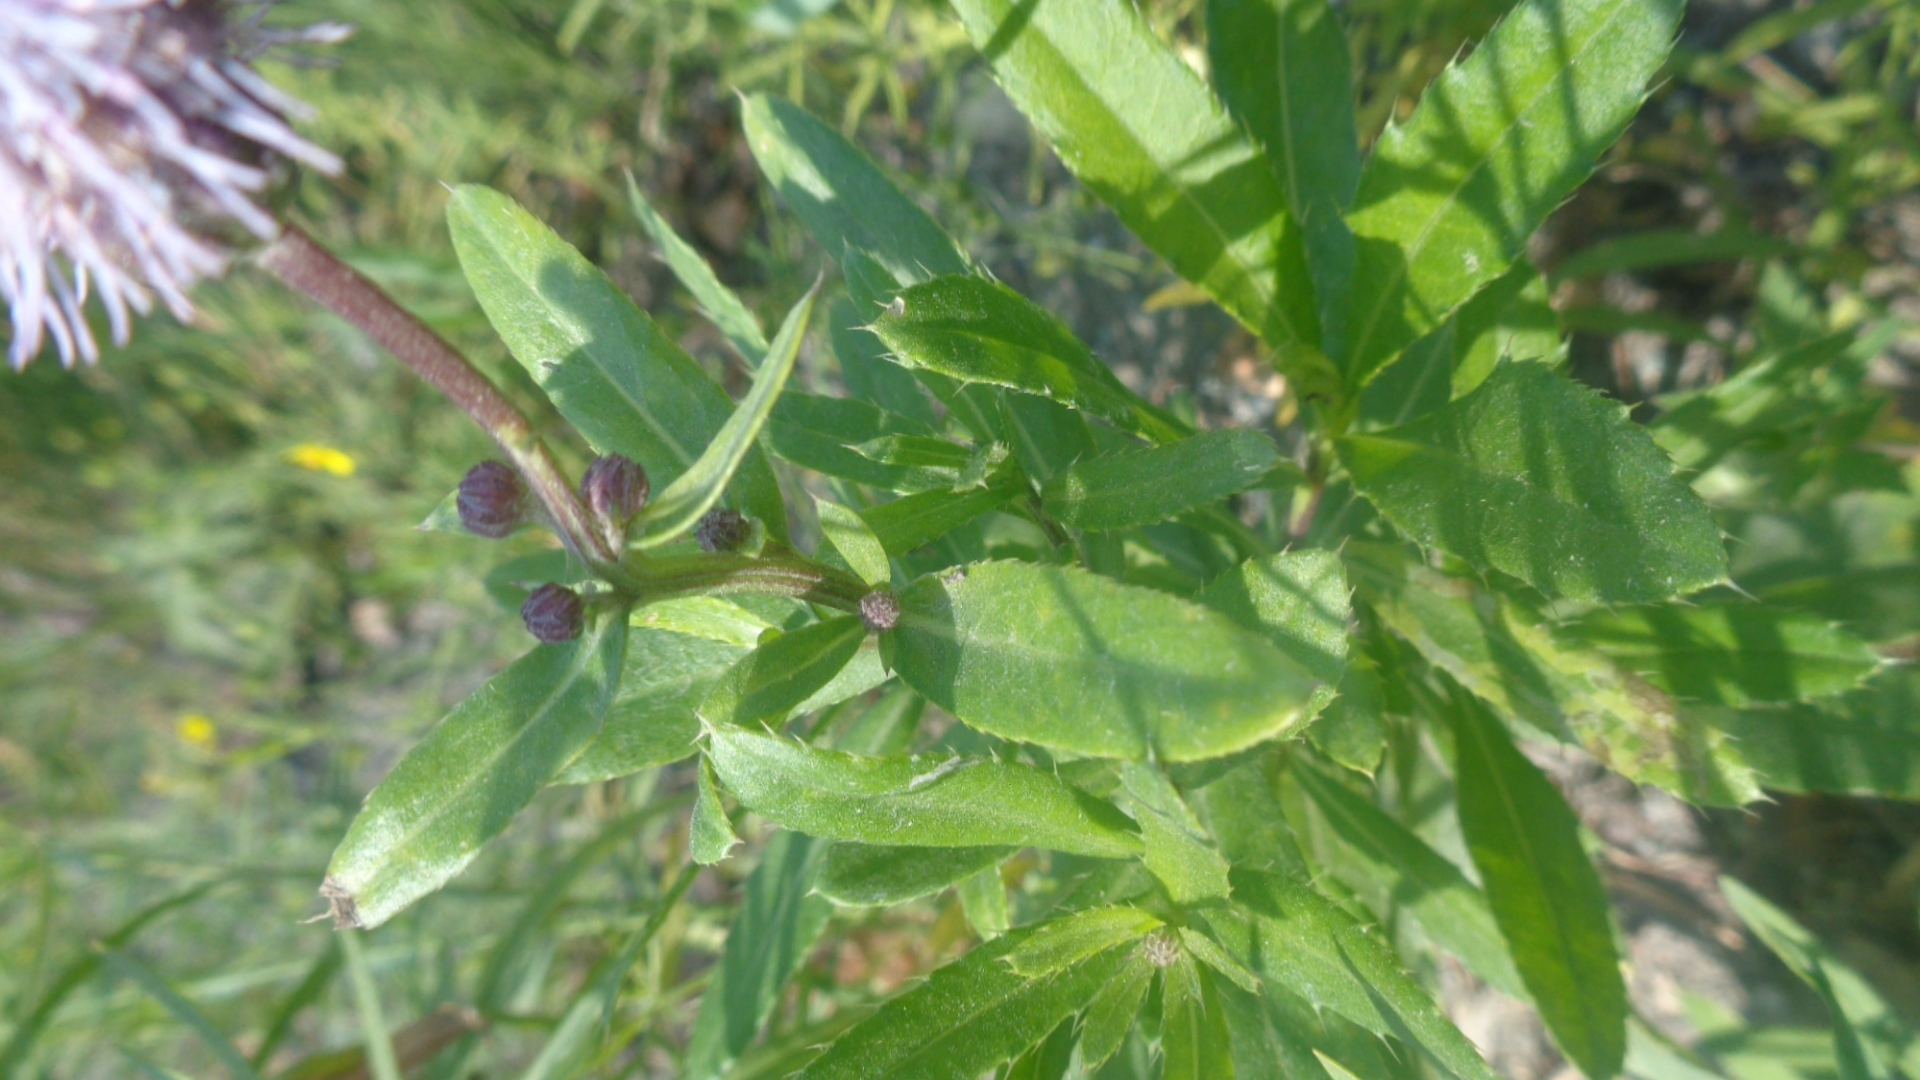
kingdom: Plantae
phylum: Tracheophyta
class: Magnoliopsida
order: Asterales
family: Asteraceae
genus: Cirsium
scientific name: Cirsium arvense
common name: Creeping thistle
